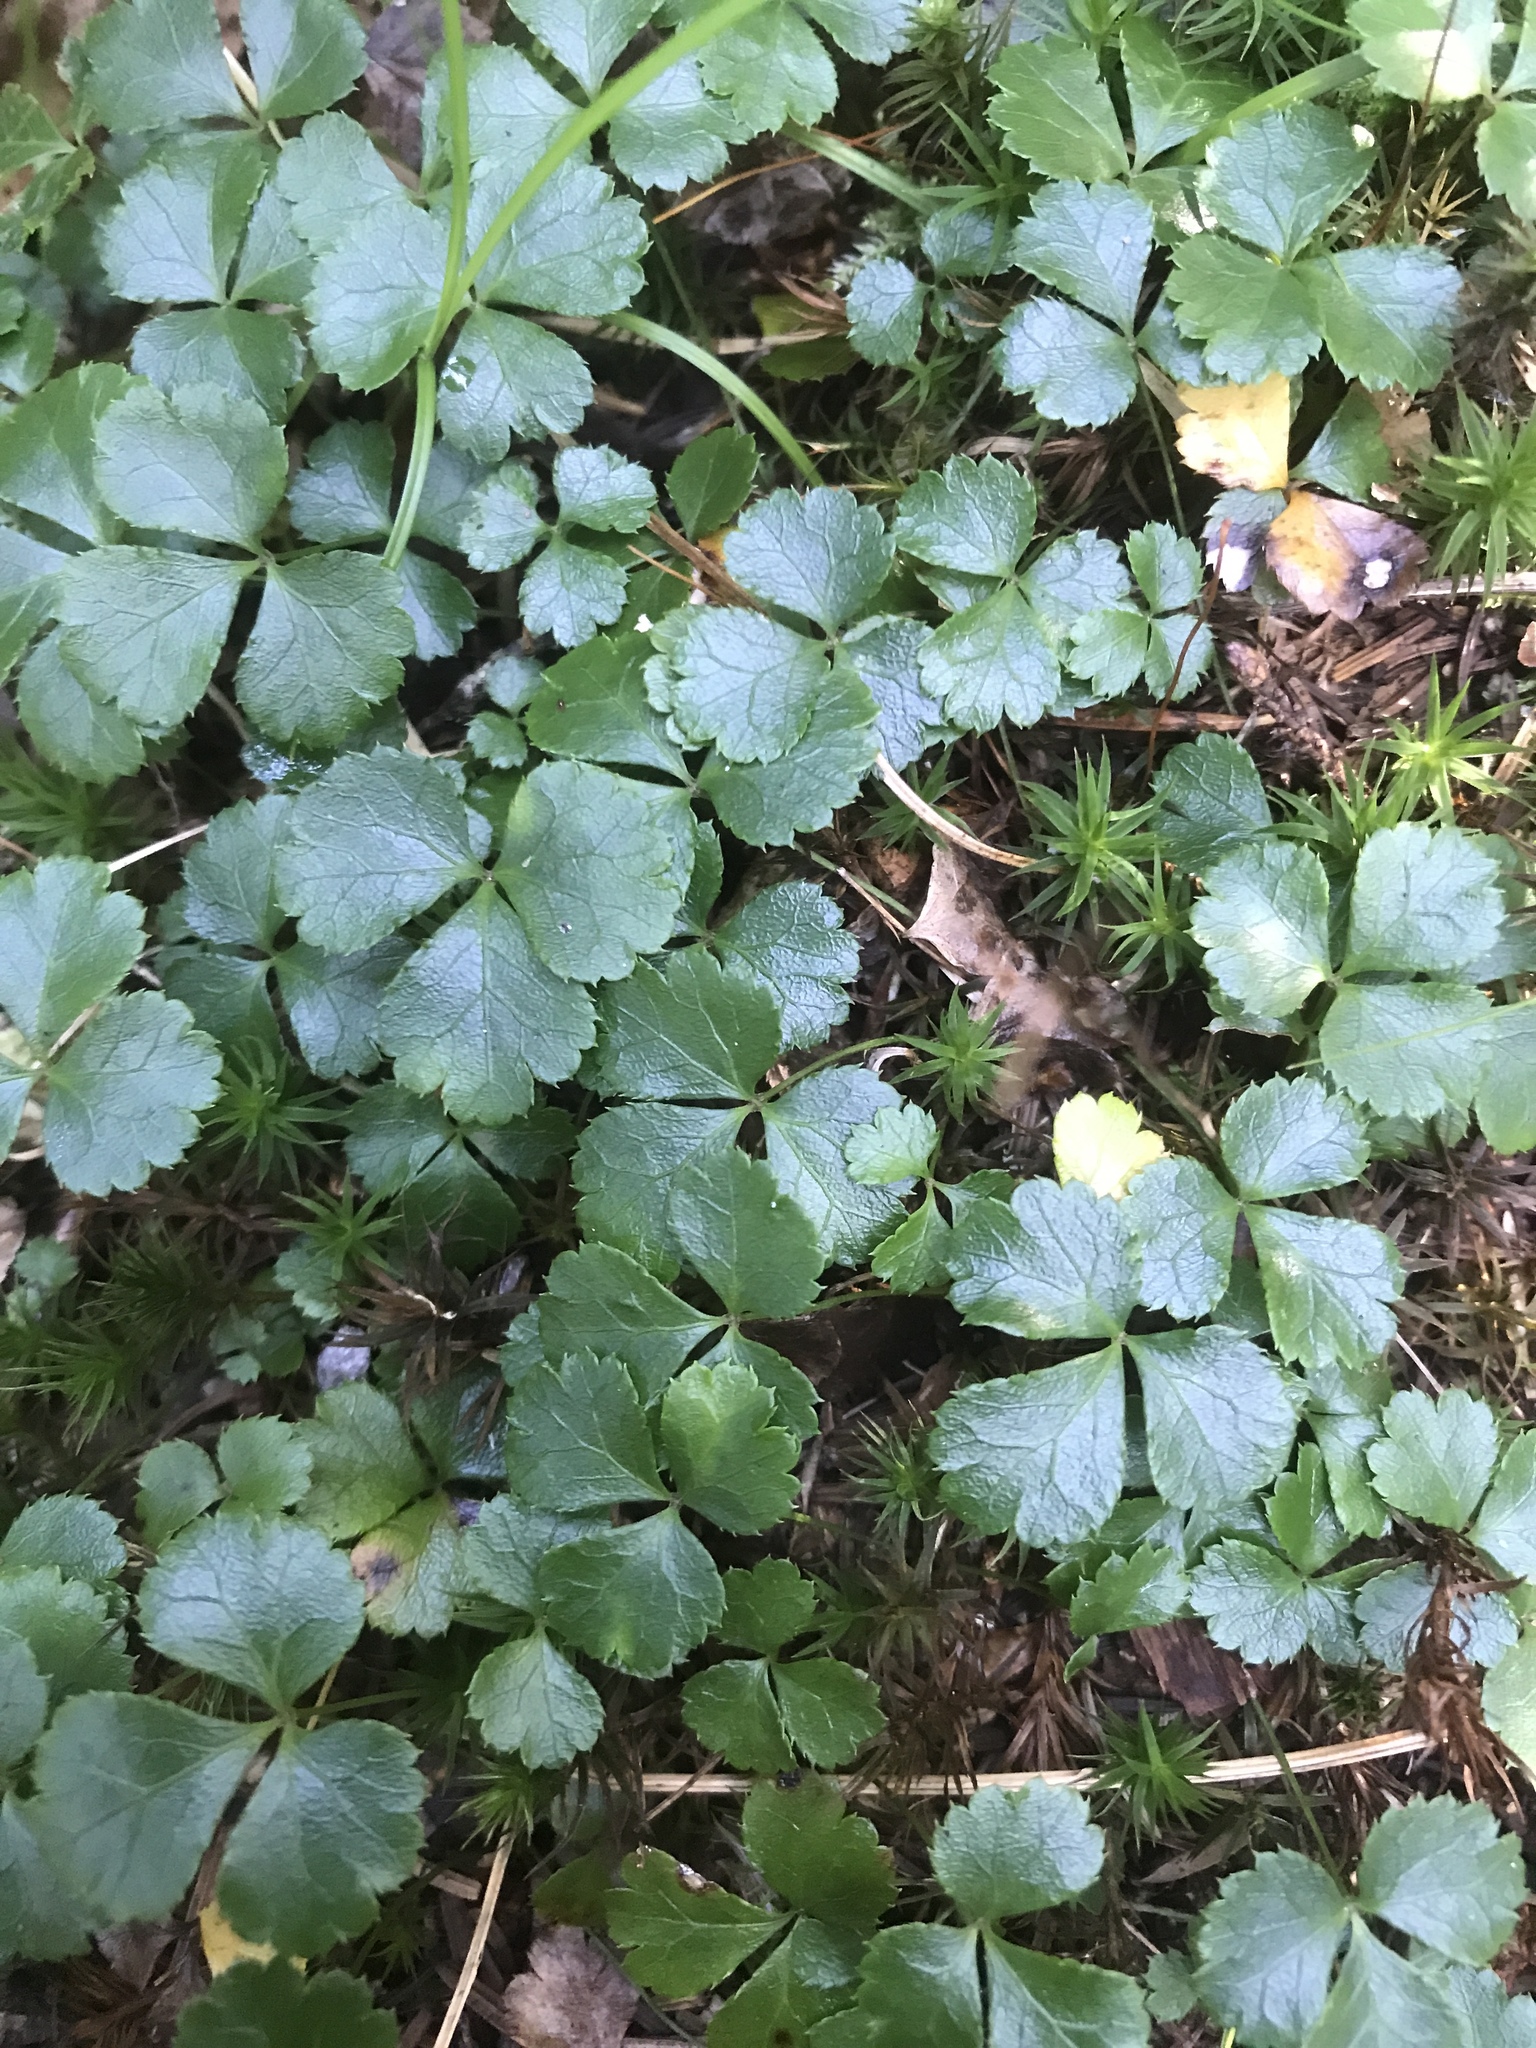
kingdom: Plantae
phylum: Tracheophyta
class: Magnoliopsida
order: Ranunculales
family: Ranunculaceae
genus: Coptis
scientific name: Coptis trifolia
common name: Canker-root
